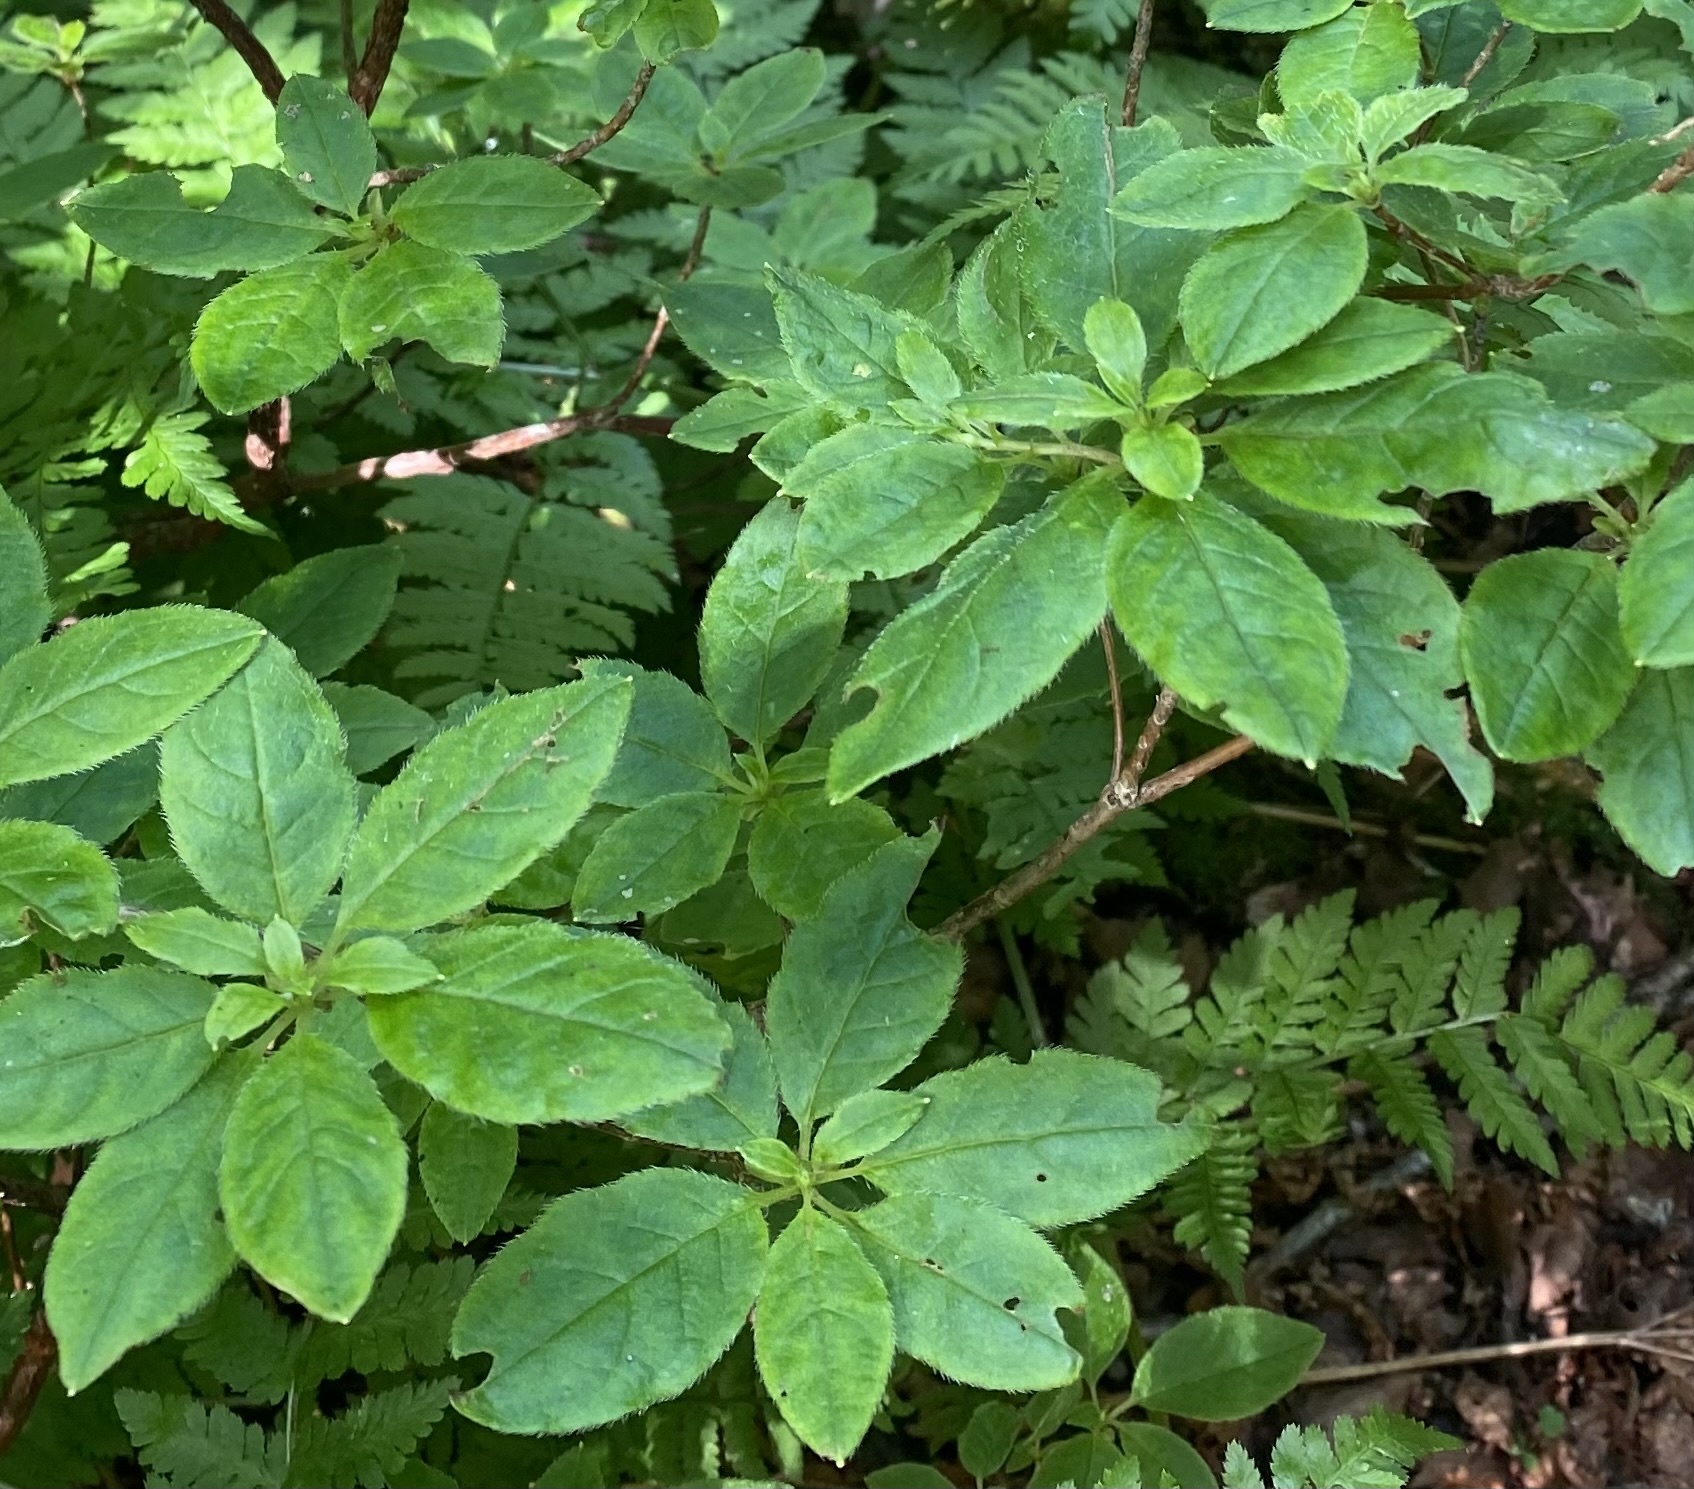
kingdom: Plantae
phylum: Tracheophyta
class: Magnoliopsida
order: Ericales
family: Ericaceae
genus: Rhododendron
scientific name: Rhododendron pentandrum
